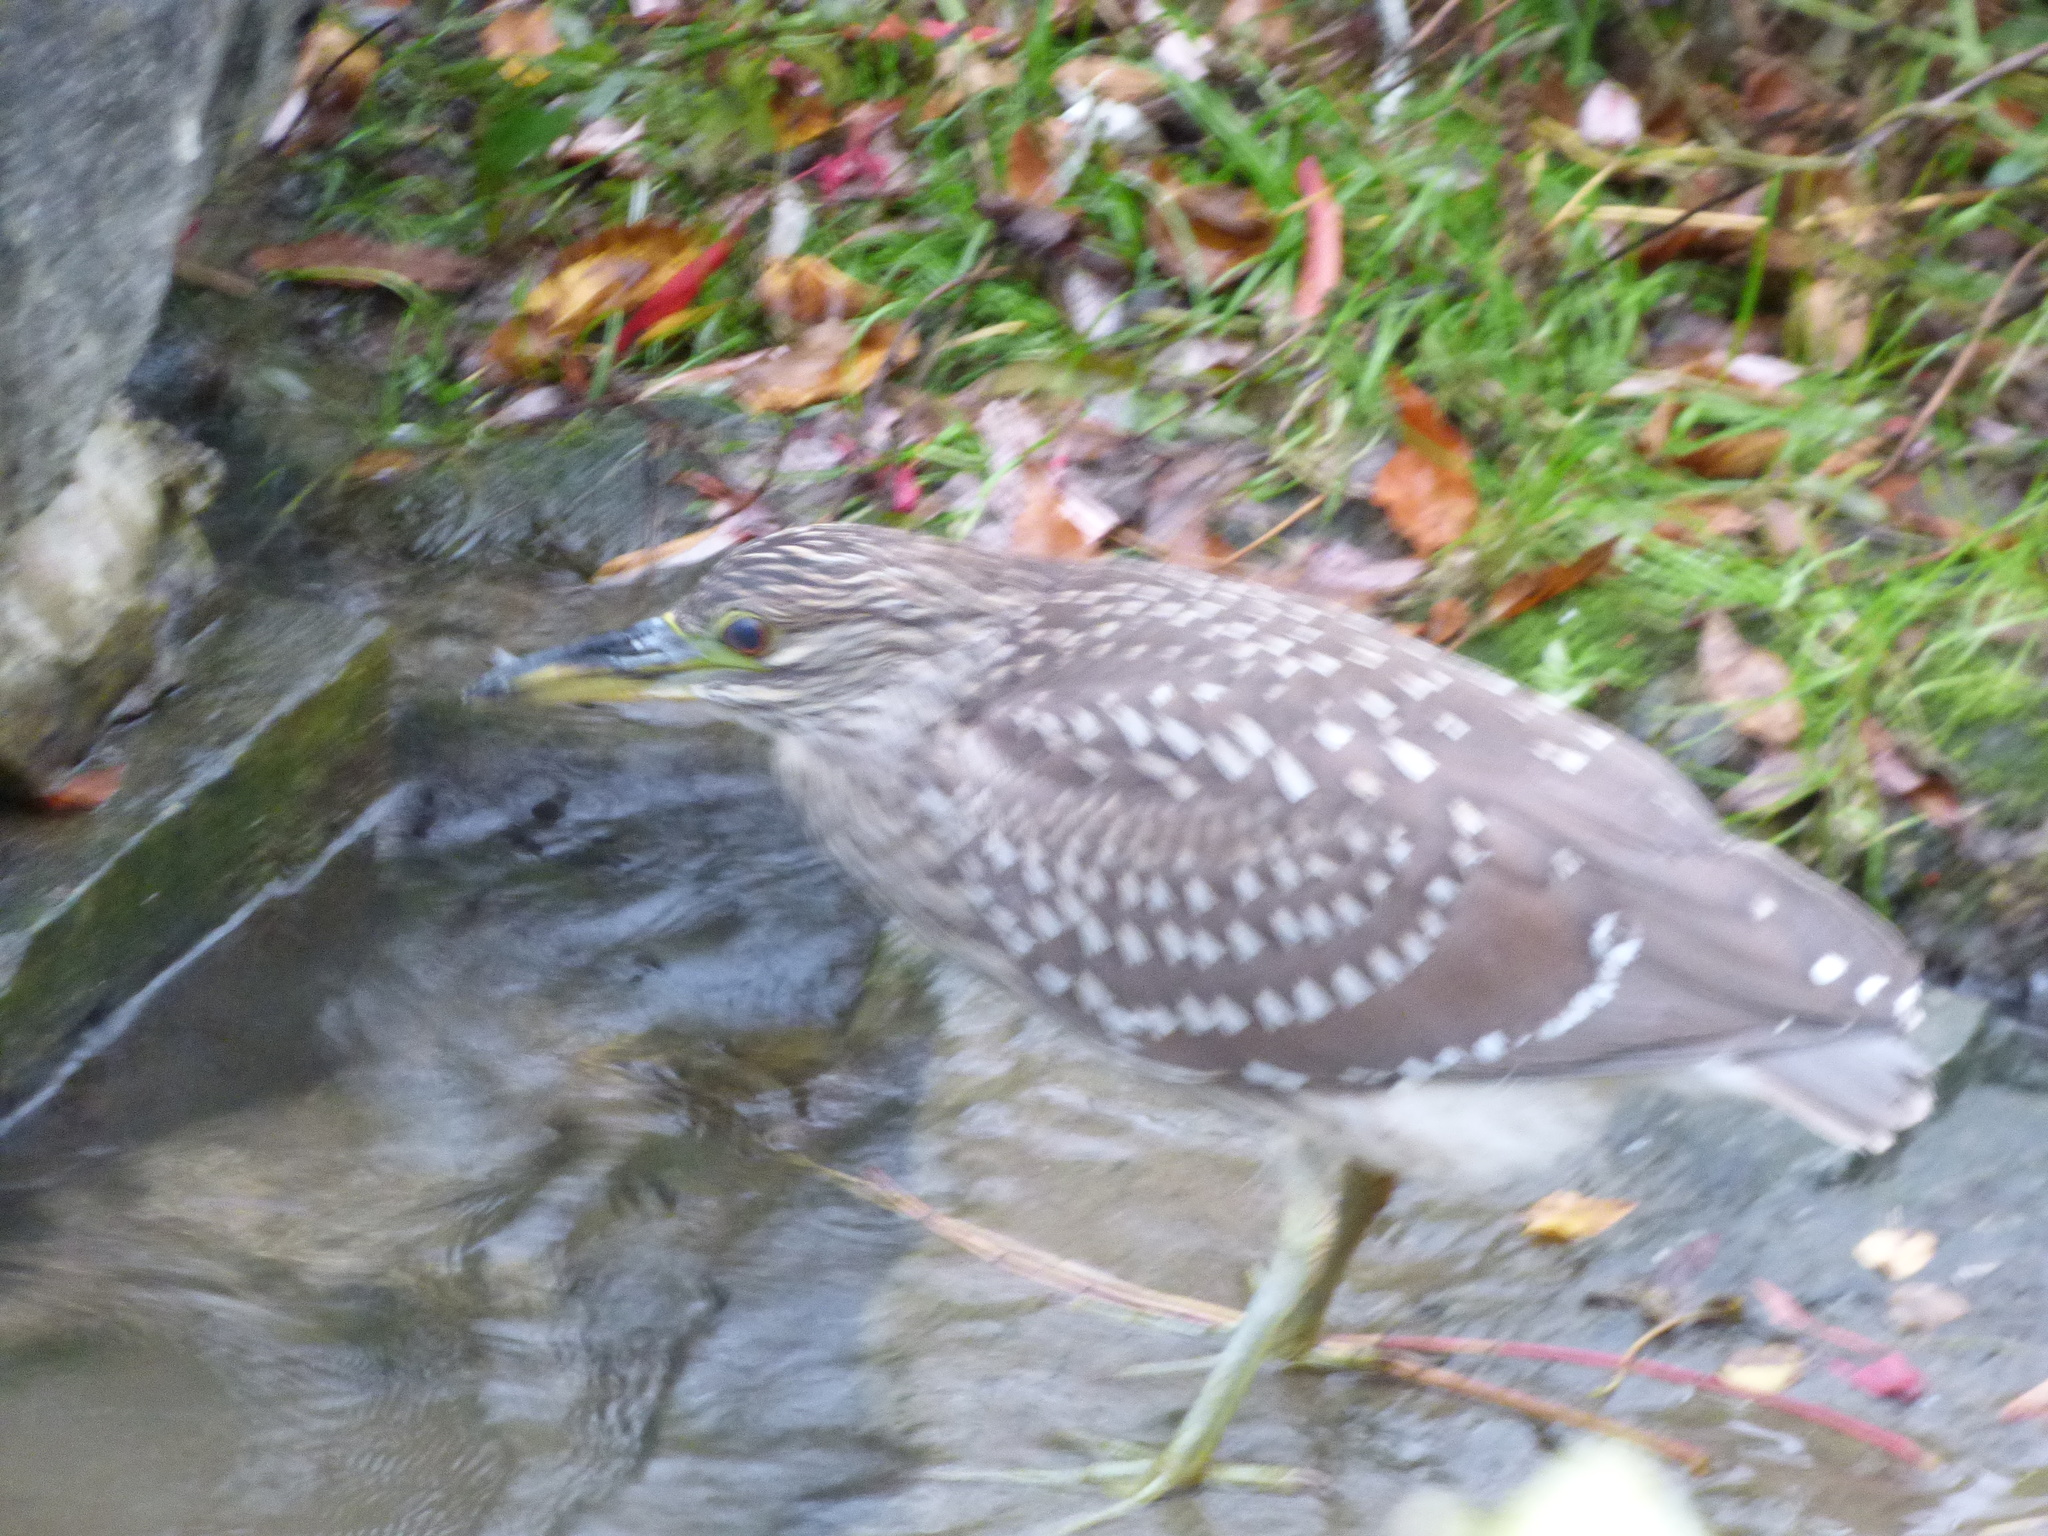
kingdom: Animalia
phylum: Chordata
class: Aves
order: Pelecaniformes
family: Ardeidae
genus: Nycticorax
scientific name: Nycticorax nycticorax
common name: Black-crowned night heron
